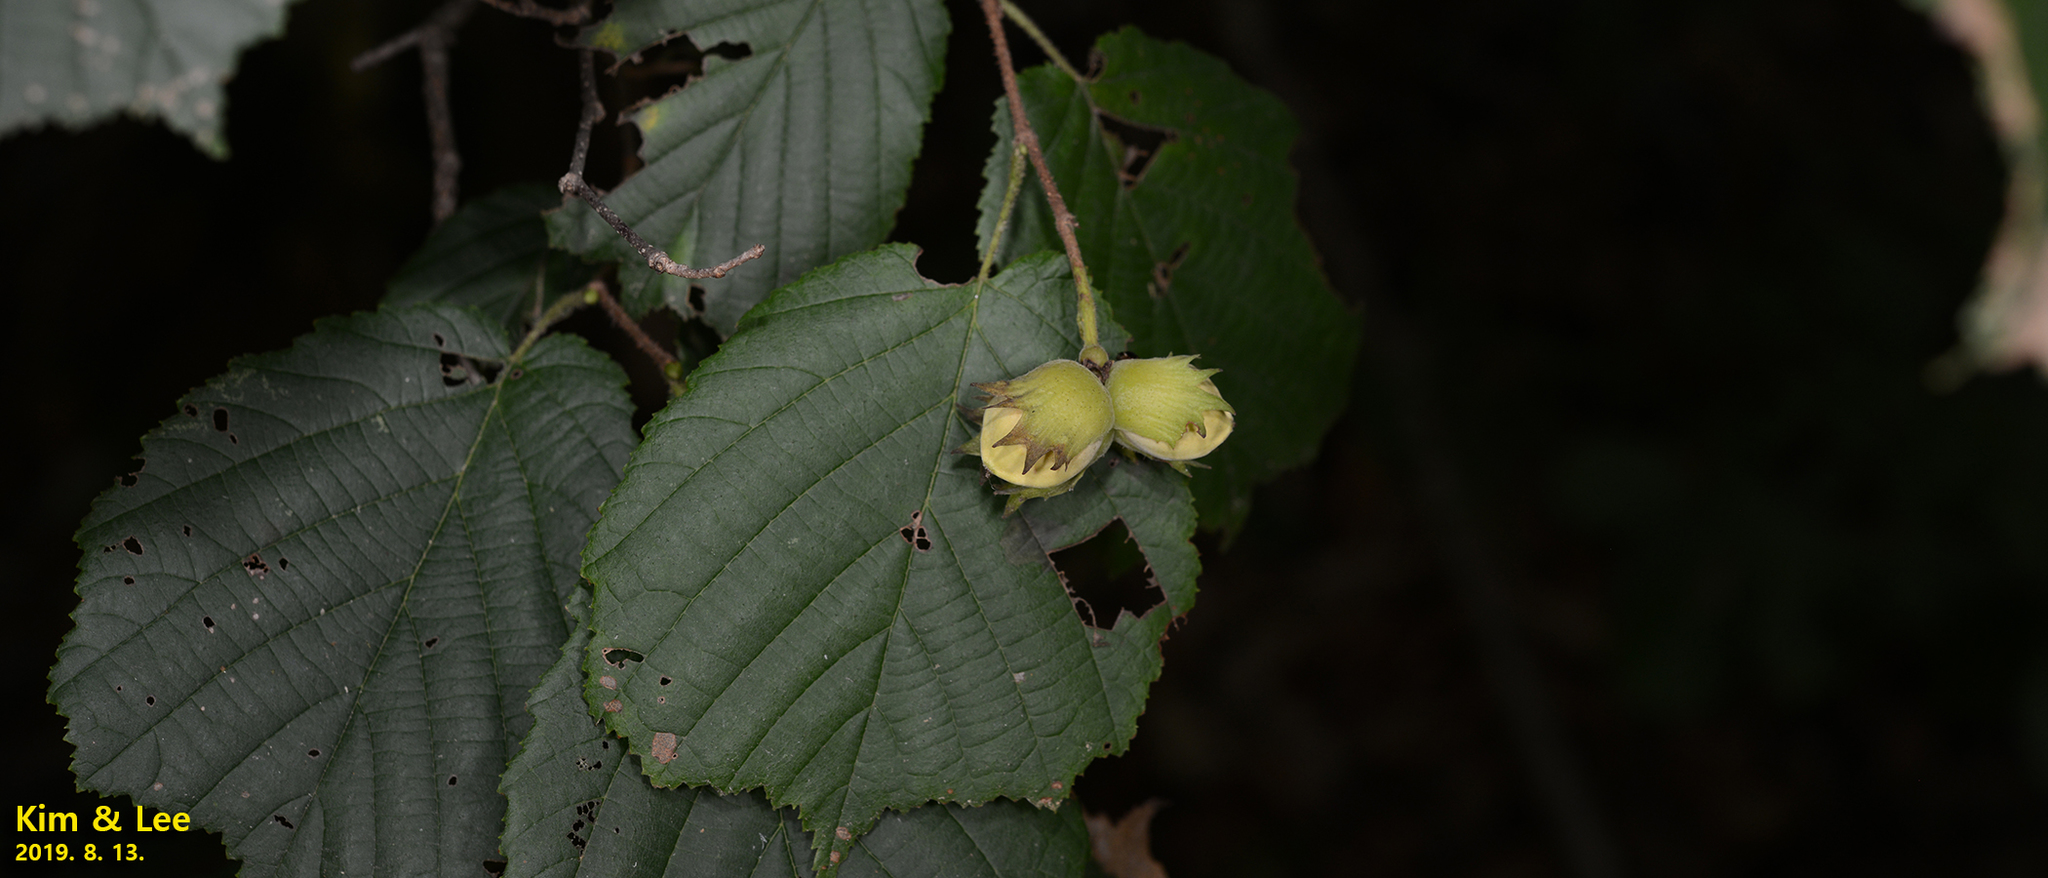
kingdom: Plantae
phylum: Tracheophyta
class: Magnoliopsida
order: Fagales
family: Betulaceae
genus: Corylus
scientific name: Corylus heterophylla
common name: Siberian hazelnut
